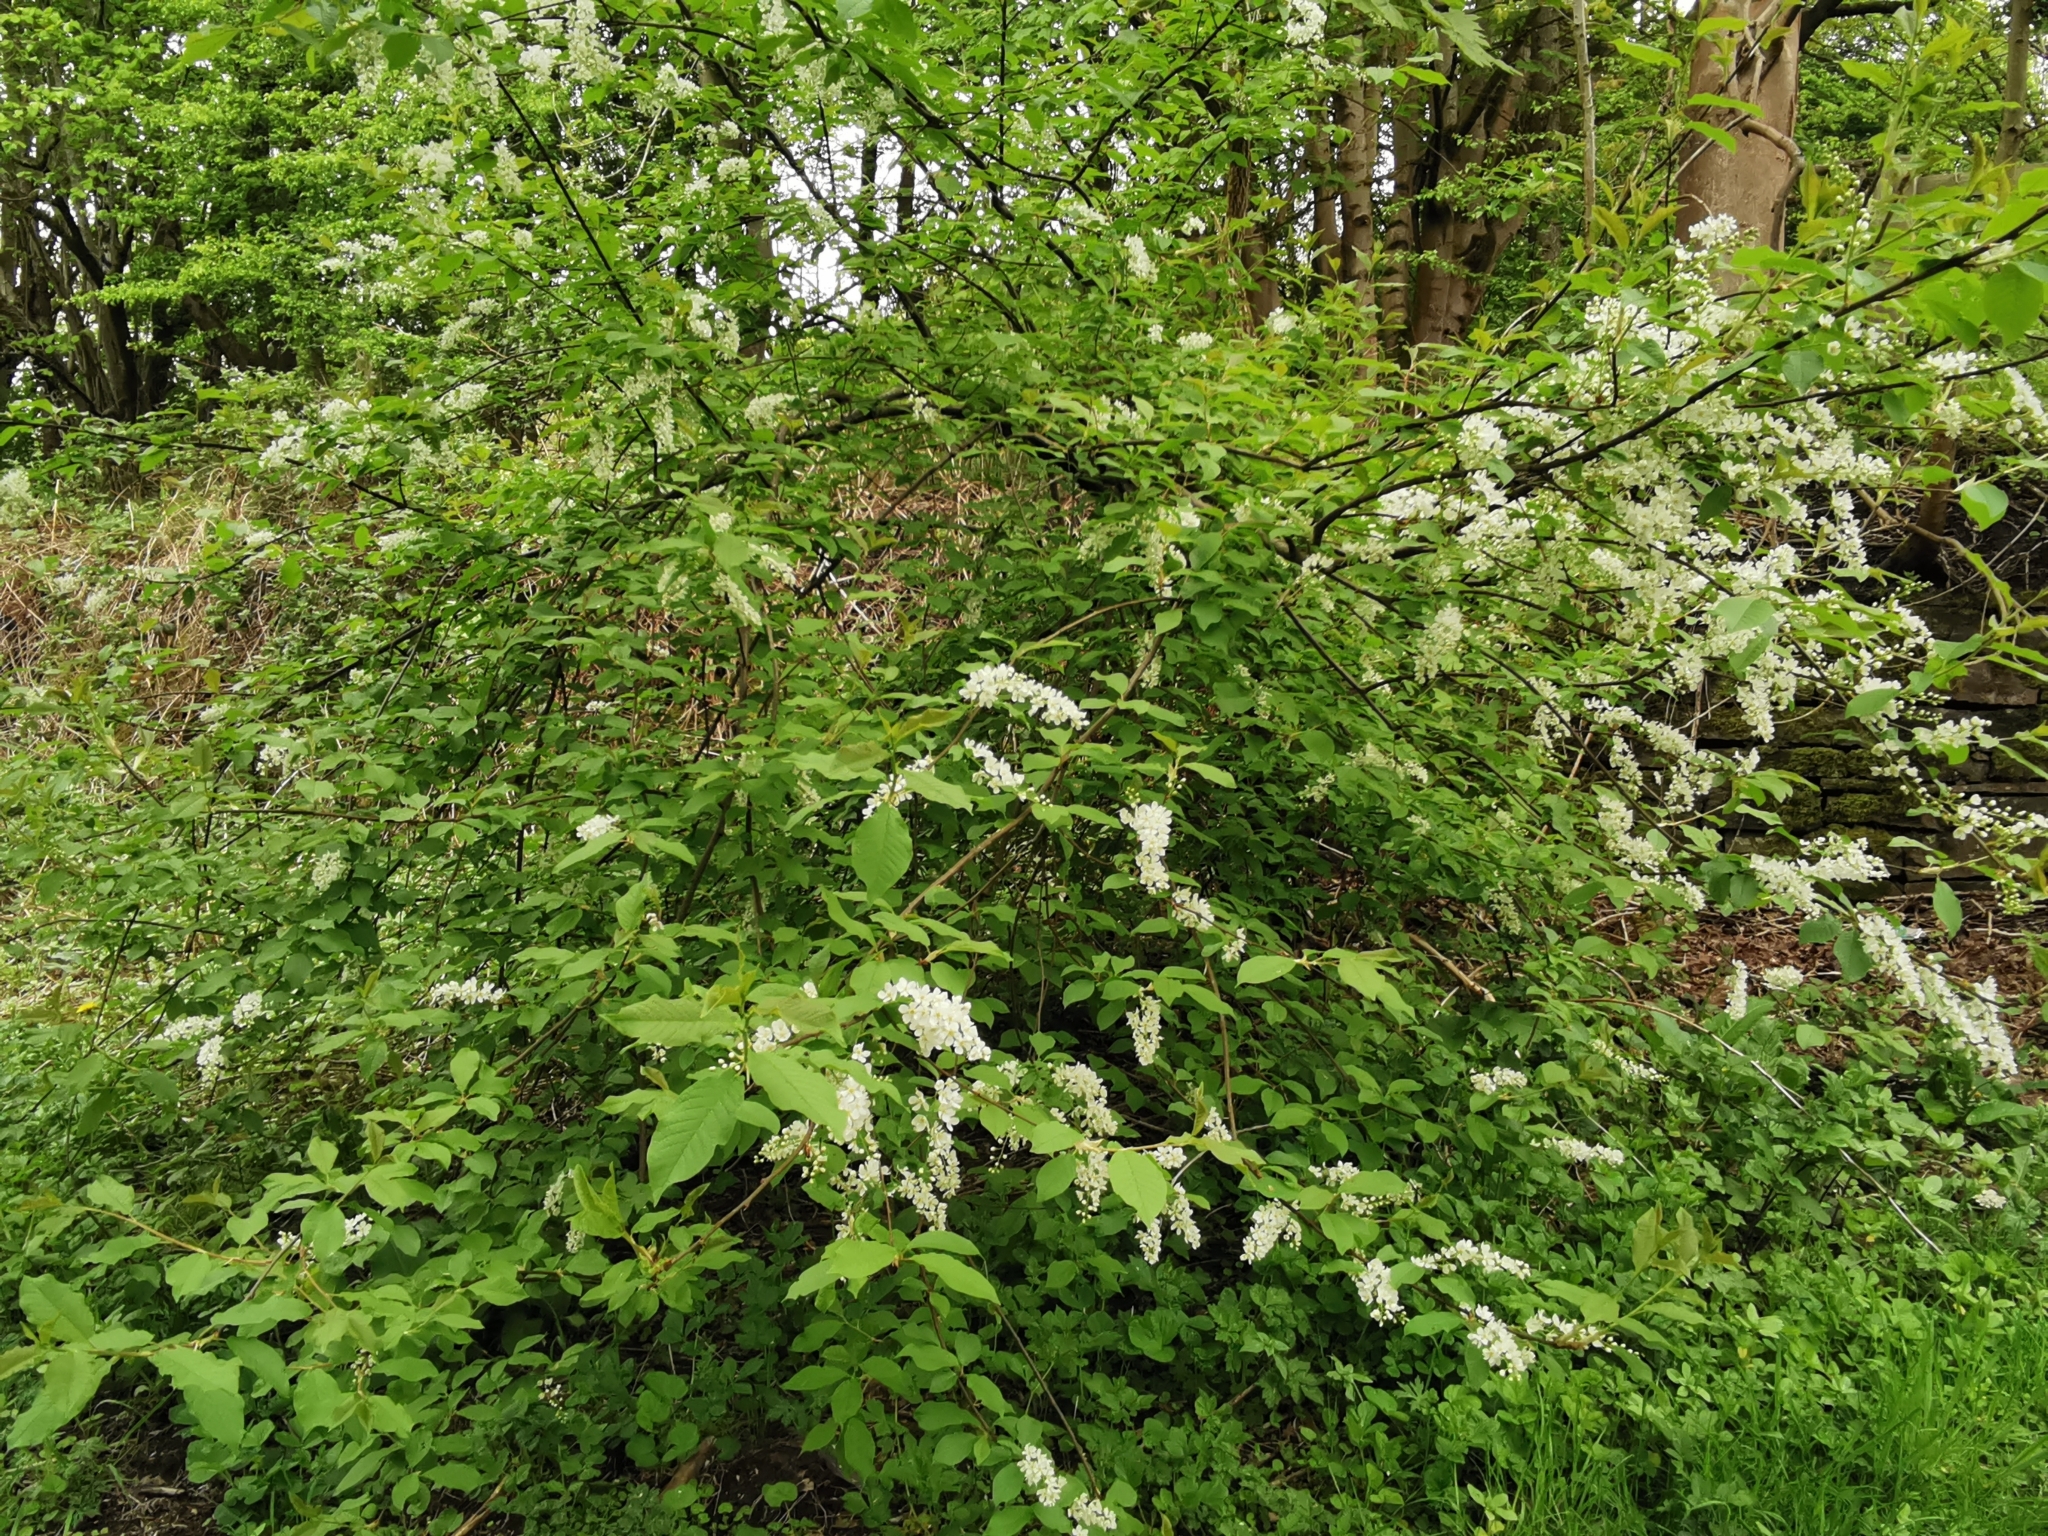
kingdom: Plantae
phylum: Tracheophyta
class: Magnoliopsida
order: Rosales
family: Rosaceae
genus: Prunus
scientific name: Prunus padus
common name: Bird cherry
